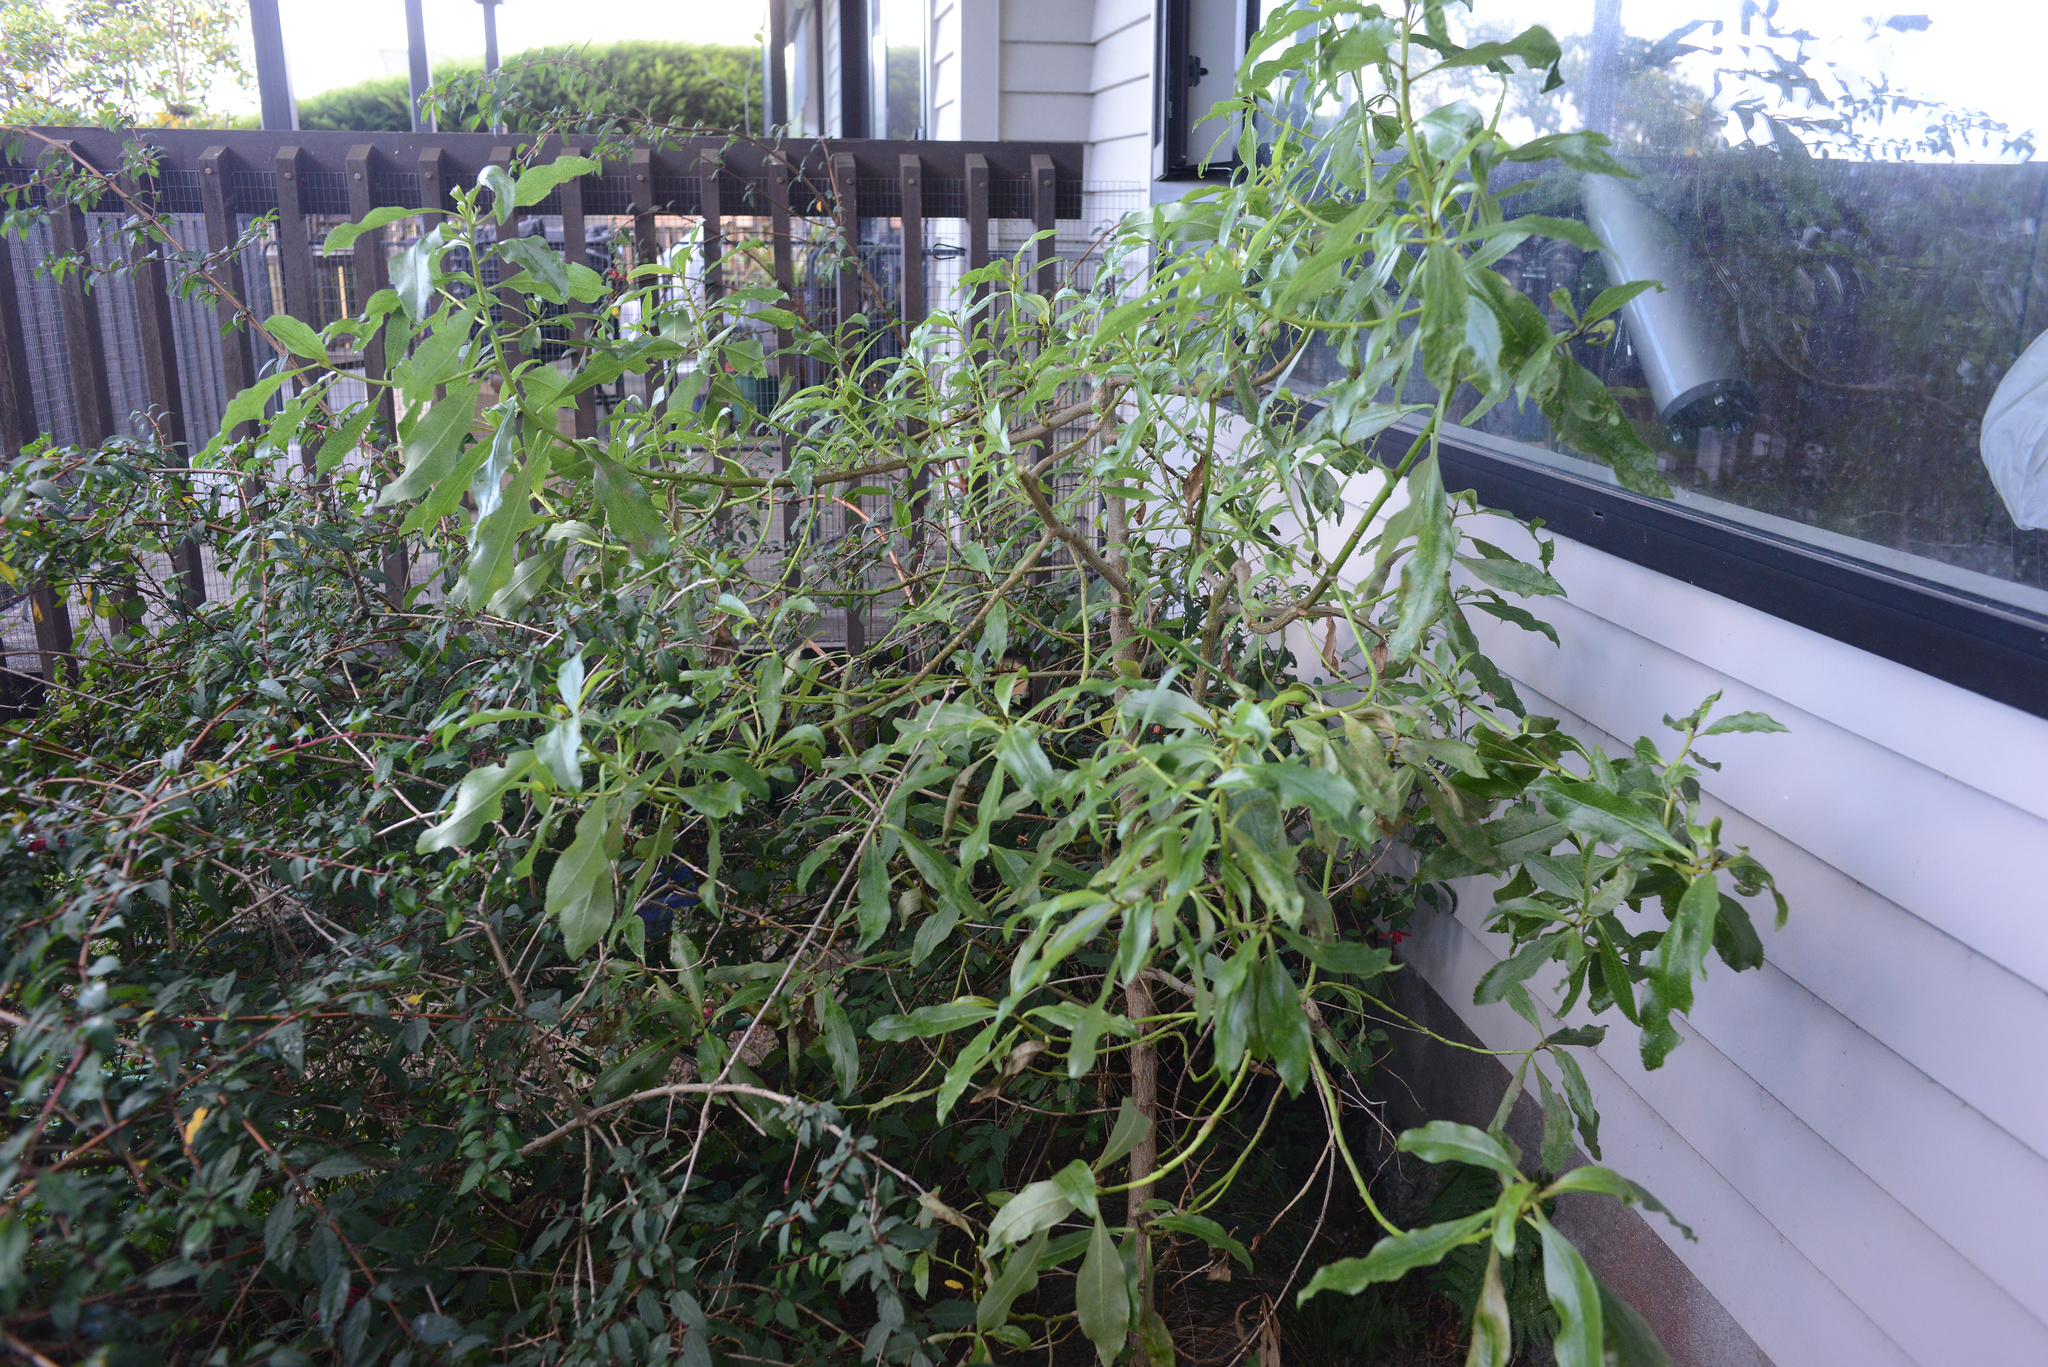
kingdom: Plantae
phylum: Tracheophyta
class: Magnoliopsida
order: Lamiales
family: Scrophulariaceae
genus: Myoporum
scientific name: Myoporum laetum
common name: Ngaio tree
